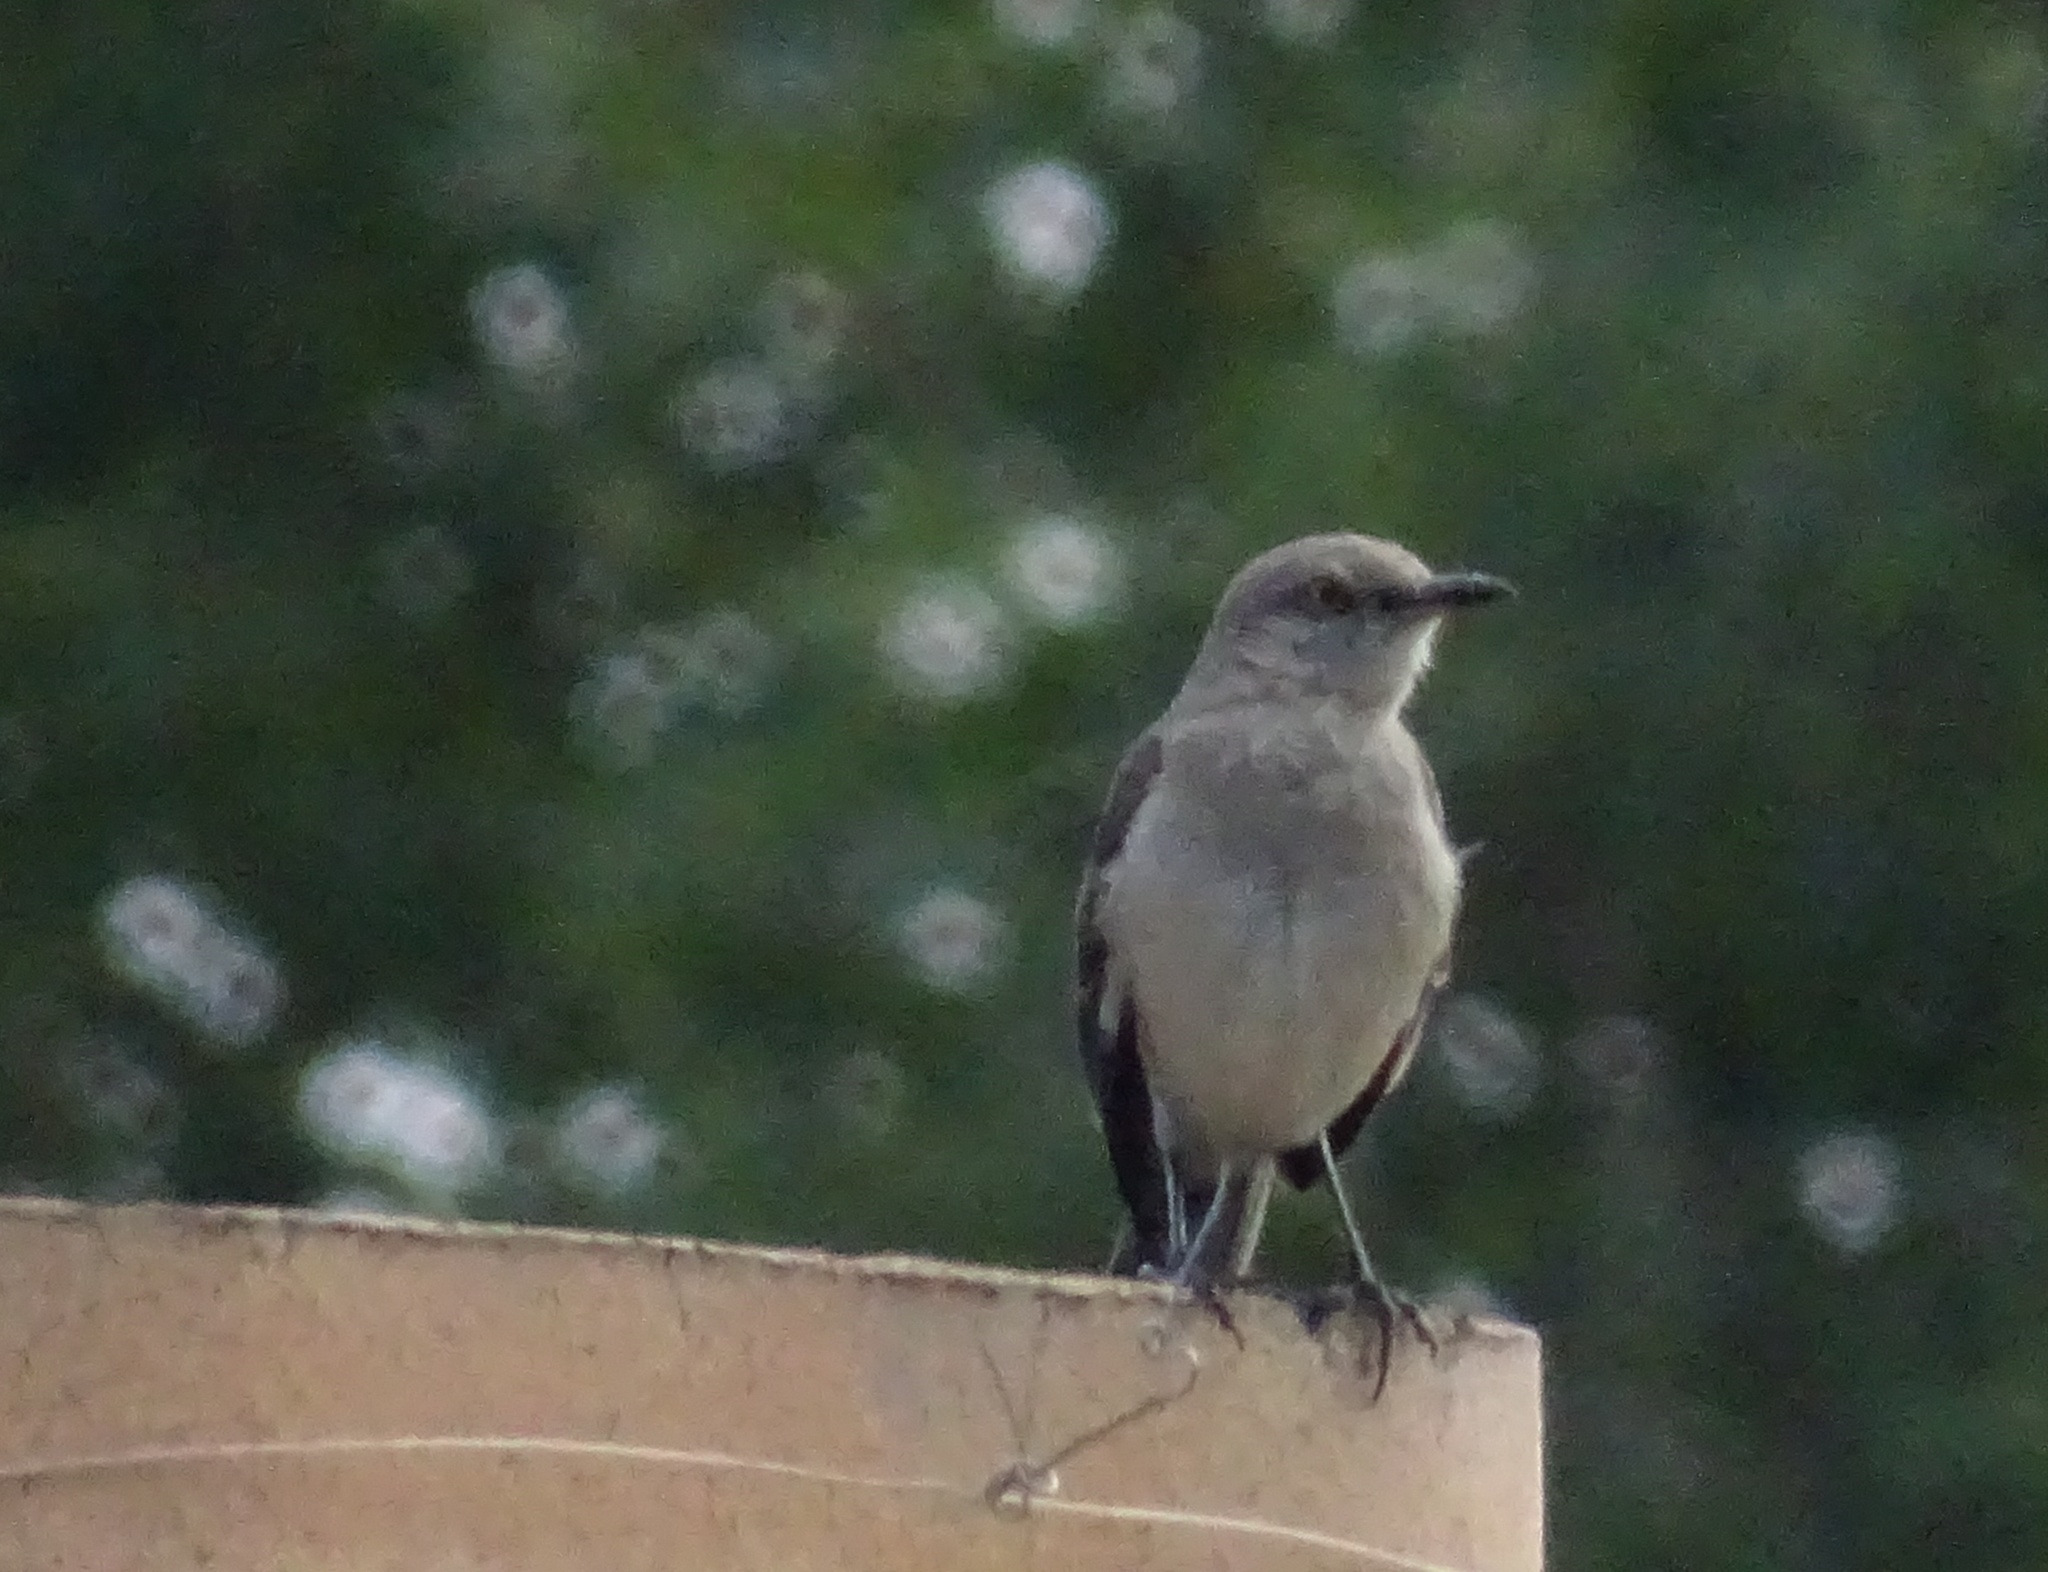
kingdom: Animalia
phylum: Chordata
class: Aves
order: Passeriformes
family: Mimidae
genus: Mimus
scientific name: Mimus polyglottos
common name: Northern mockingbird
